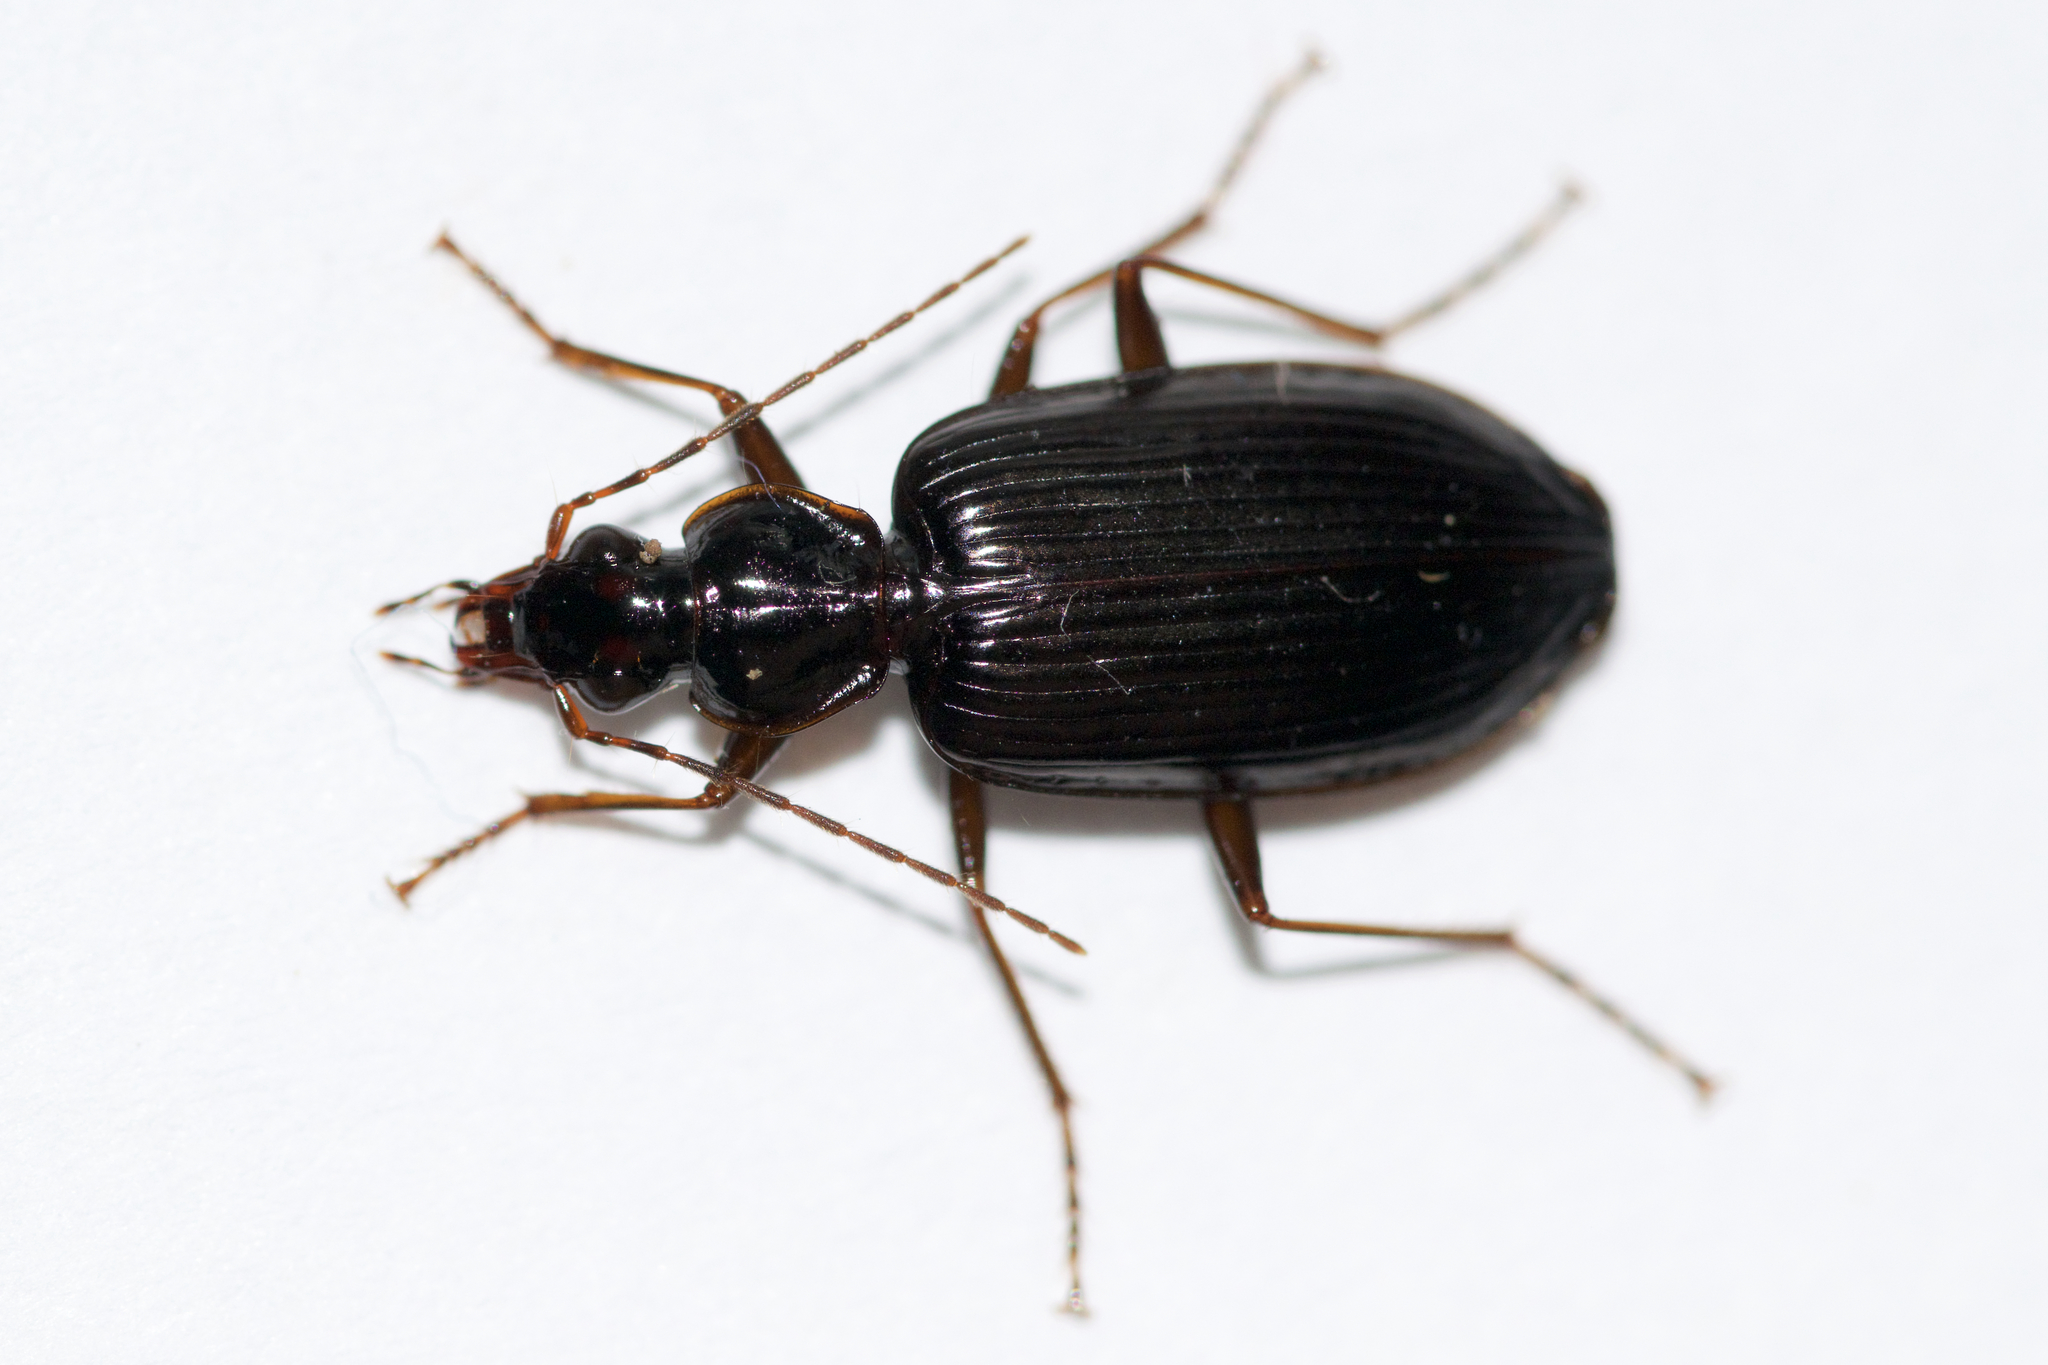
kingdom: Animalia
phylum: Arthropoda
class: Insecta
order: Coleoptera
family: Carabidae
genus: Platynus
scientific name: Platynus cincticollis
